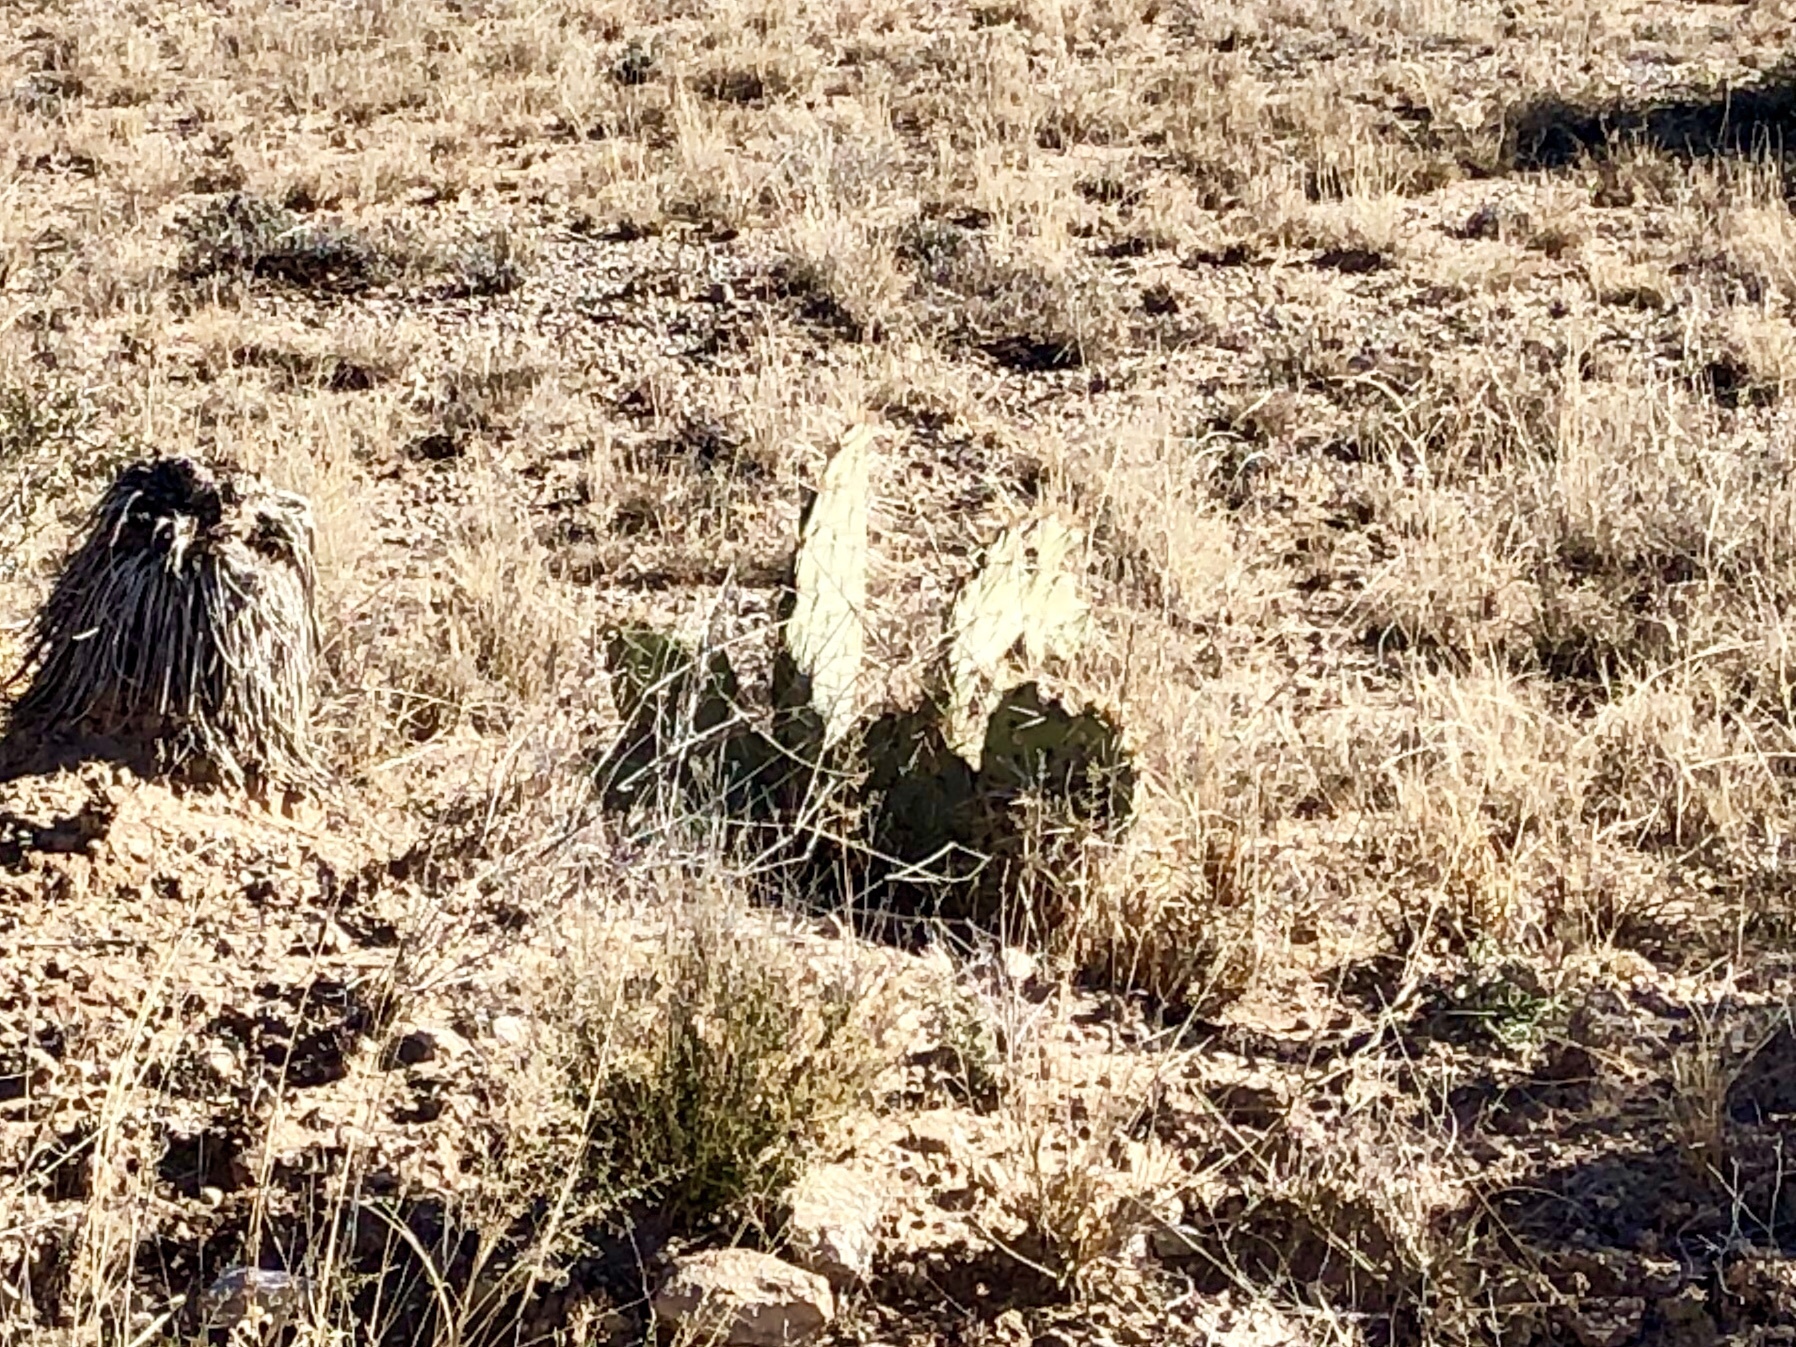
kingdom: Plantae
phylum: Tracheophyta
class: Magnoliopsida
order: Caryophyllales
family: Cactaceae
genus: Opuntia
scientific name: Opuntia engelmannii
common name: Cactus-apple
